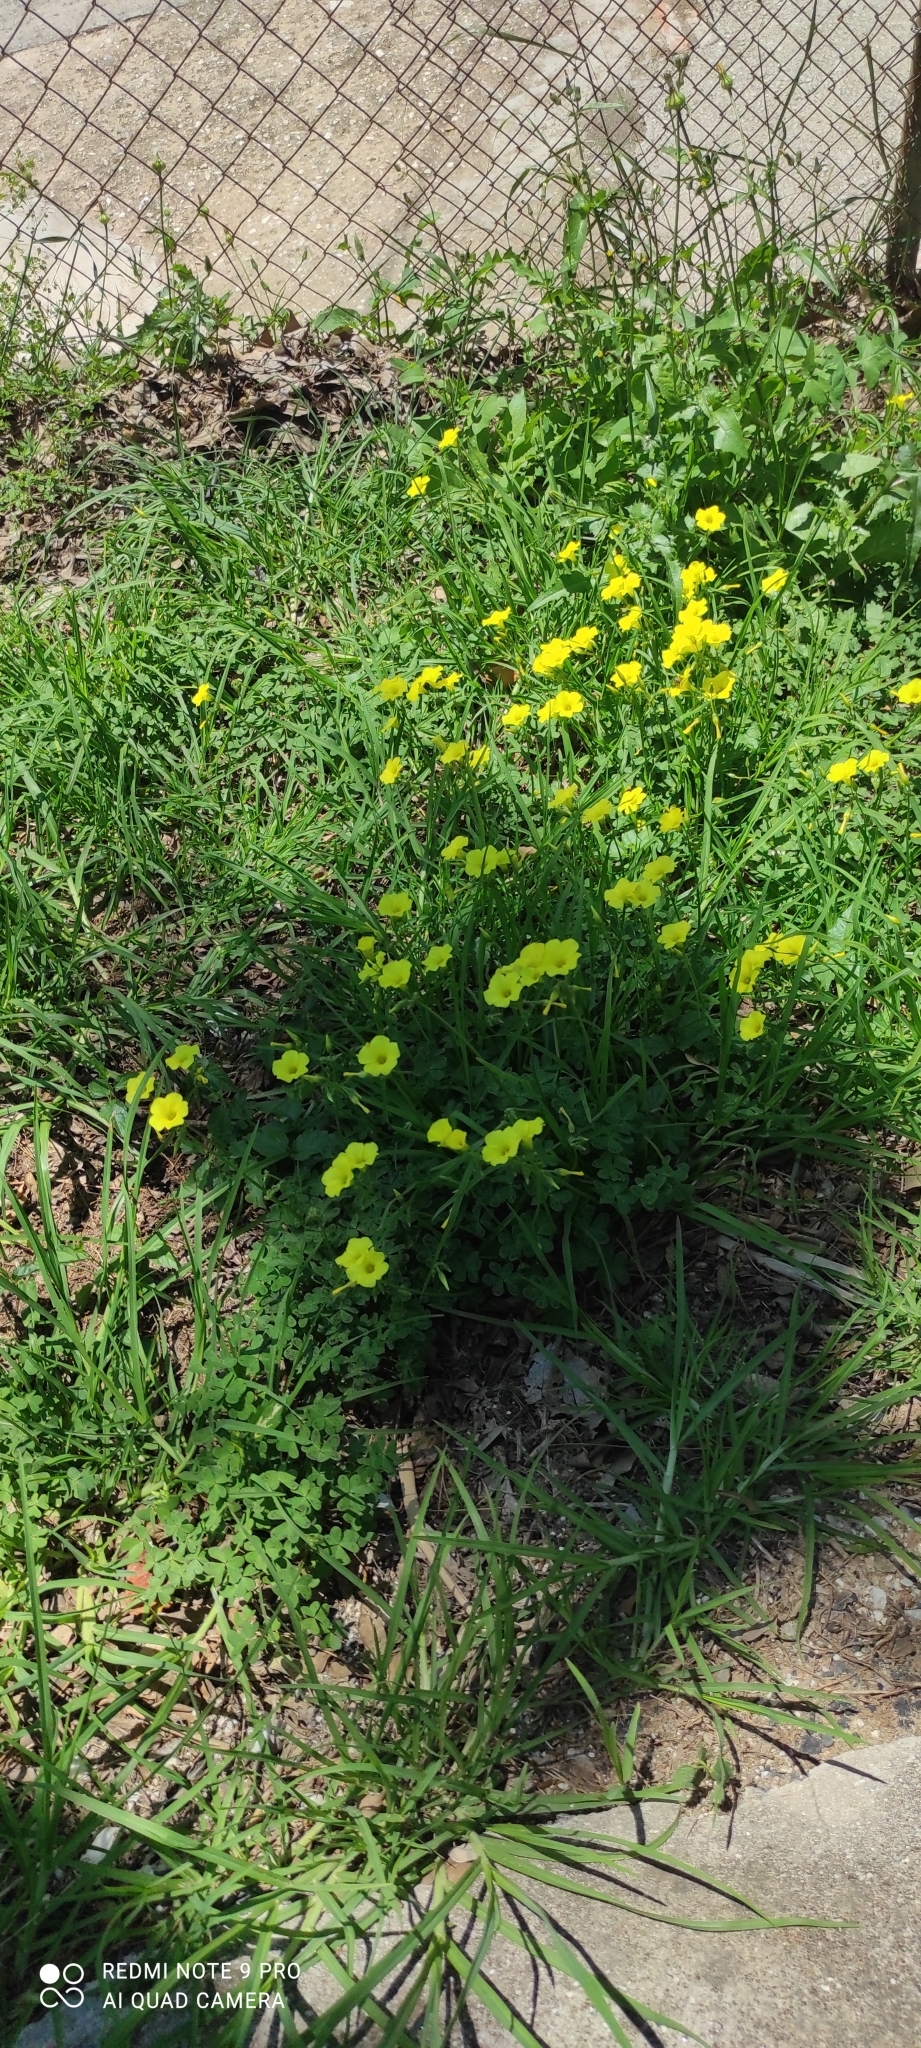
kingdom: Plantae
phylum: Tracheophyta
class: Magnoliopsida
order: Oxalidales
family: Oxalidaceae
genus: Oxalis
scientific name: Oxalis pes-caprae
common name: Bermuda-buttercup
